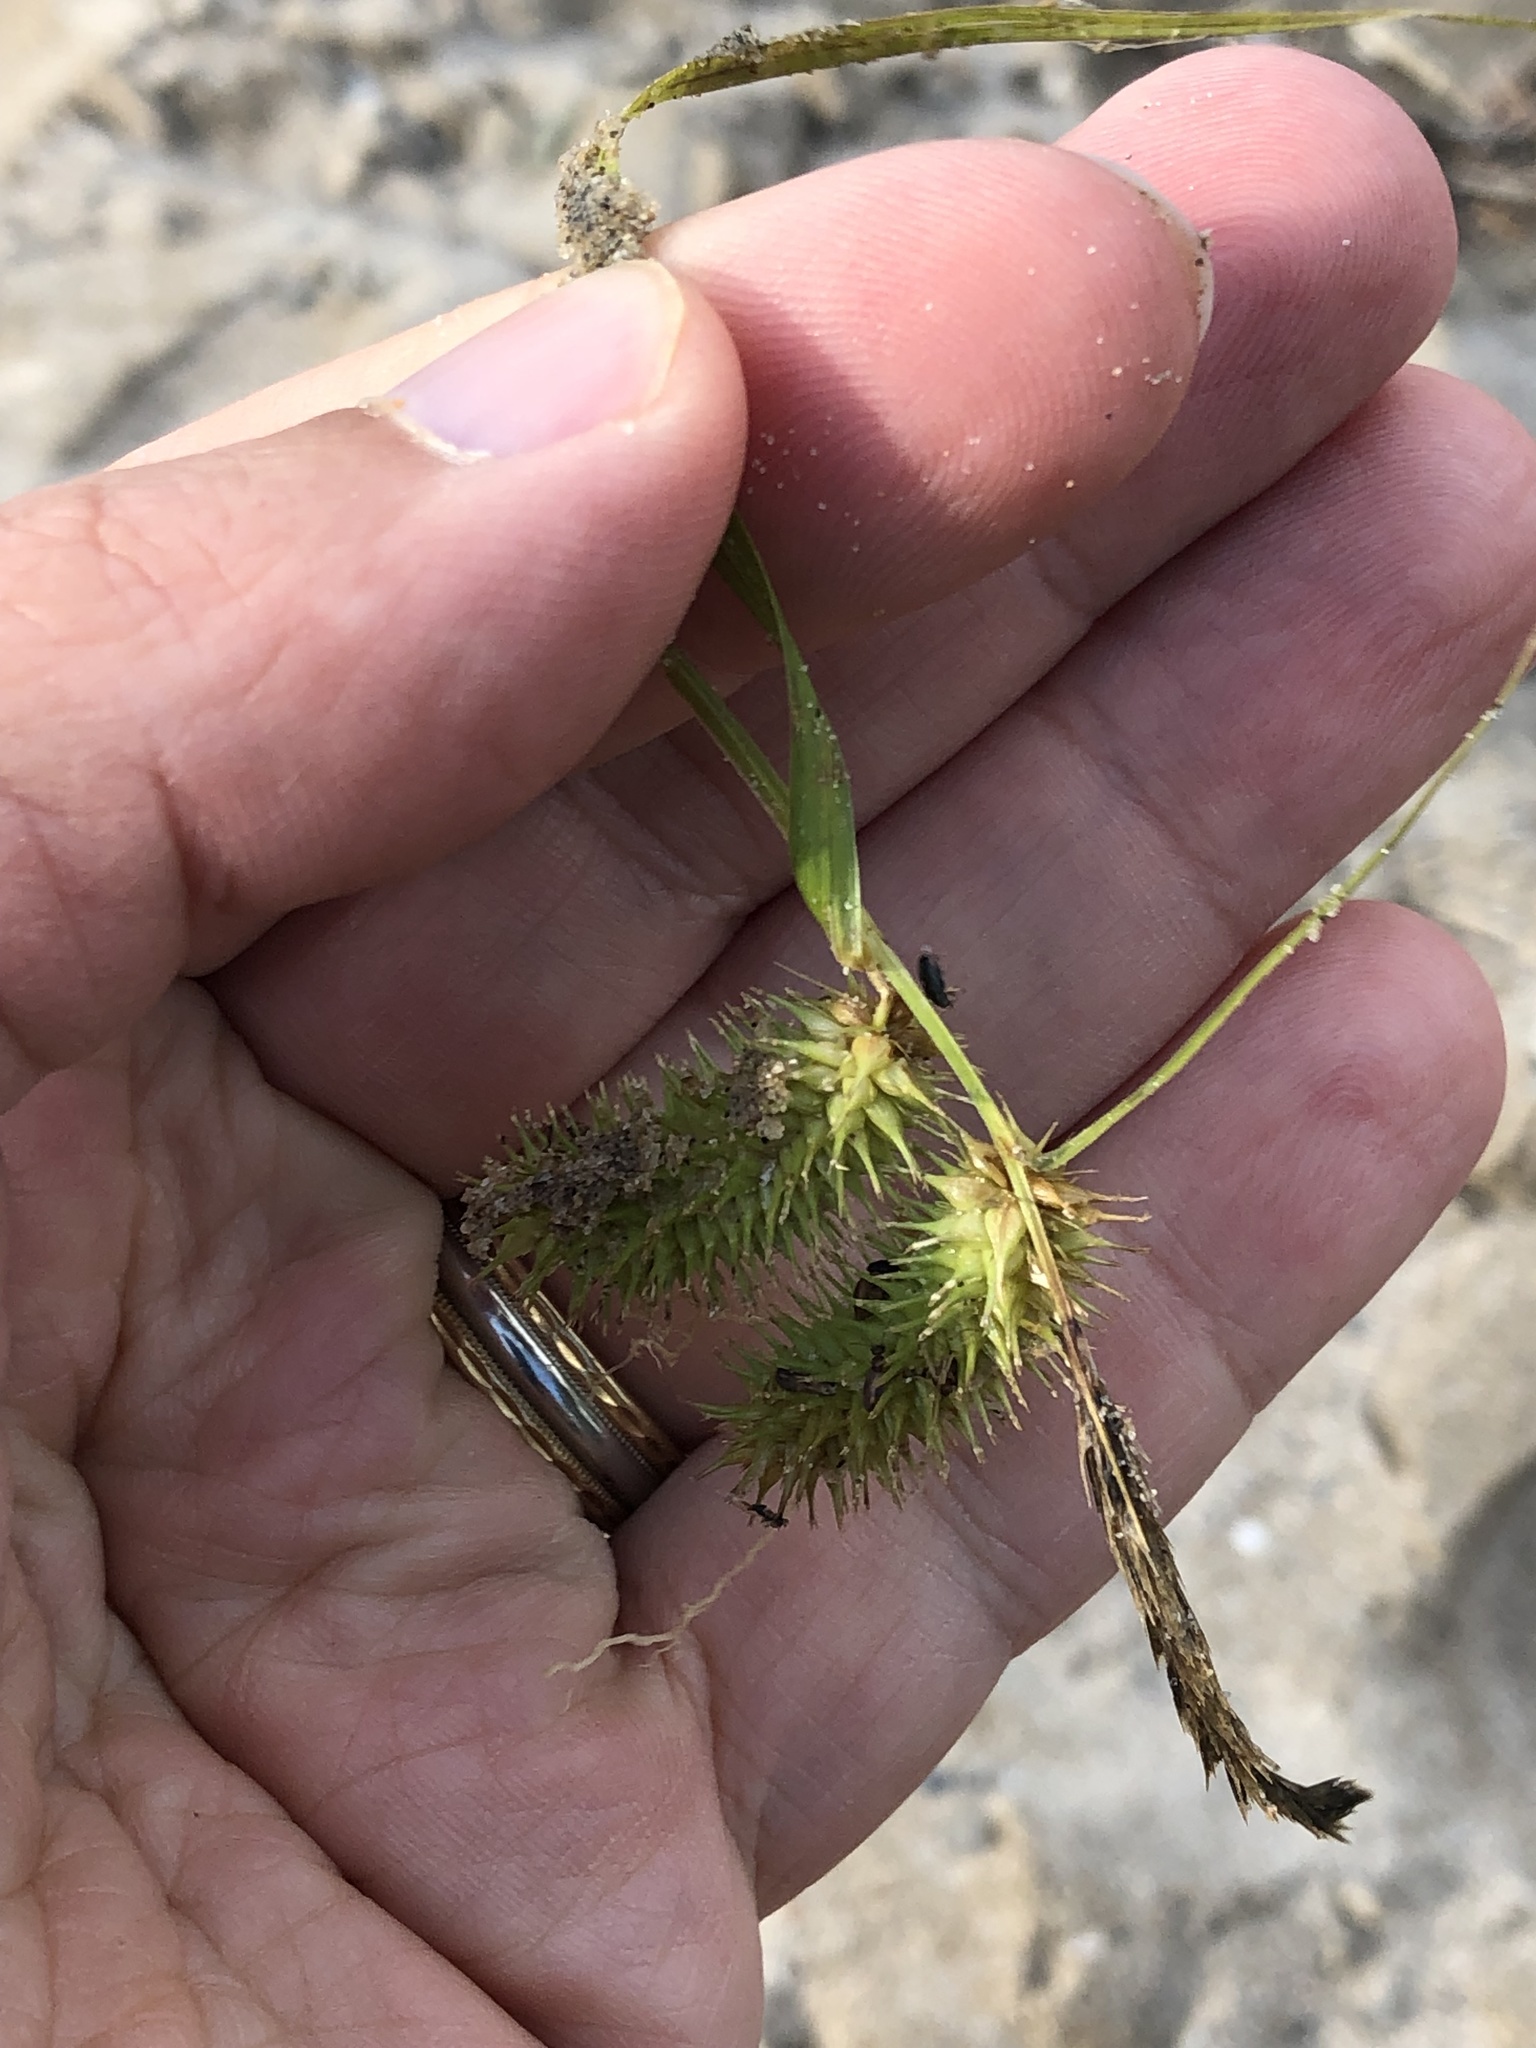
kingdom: Plantae
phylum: Tracheophyta
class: Liliopsida
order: Poales
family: Cyperaceae
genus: Carex
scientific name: Carex hystericina
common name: Bottlebrush sedge
